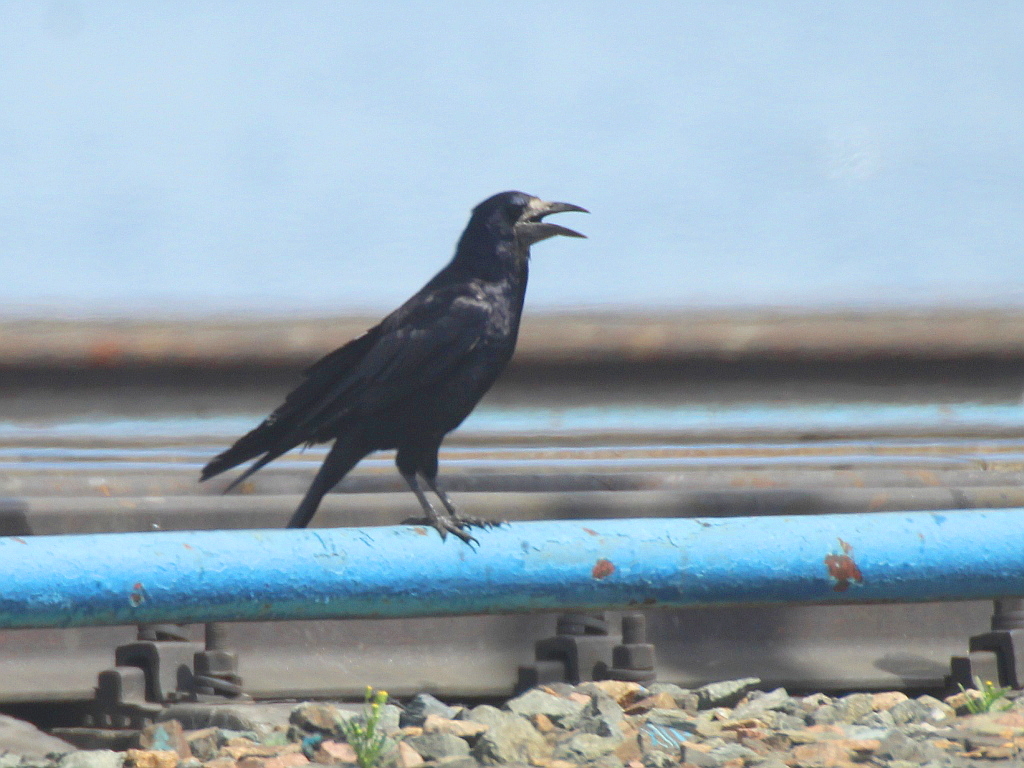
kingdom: Animalia
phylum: Chordata
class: Aves
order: Passeriformes
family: Corvidae
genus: Corvus
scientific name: Corvus frugilegus
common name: Rook
